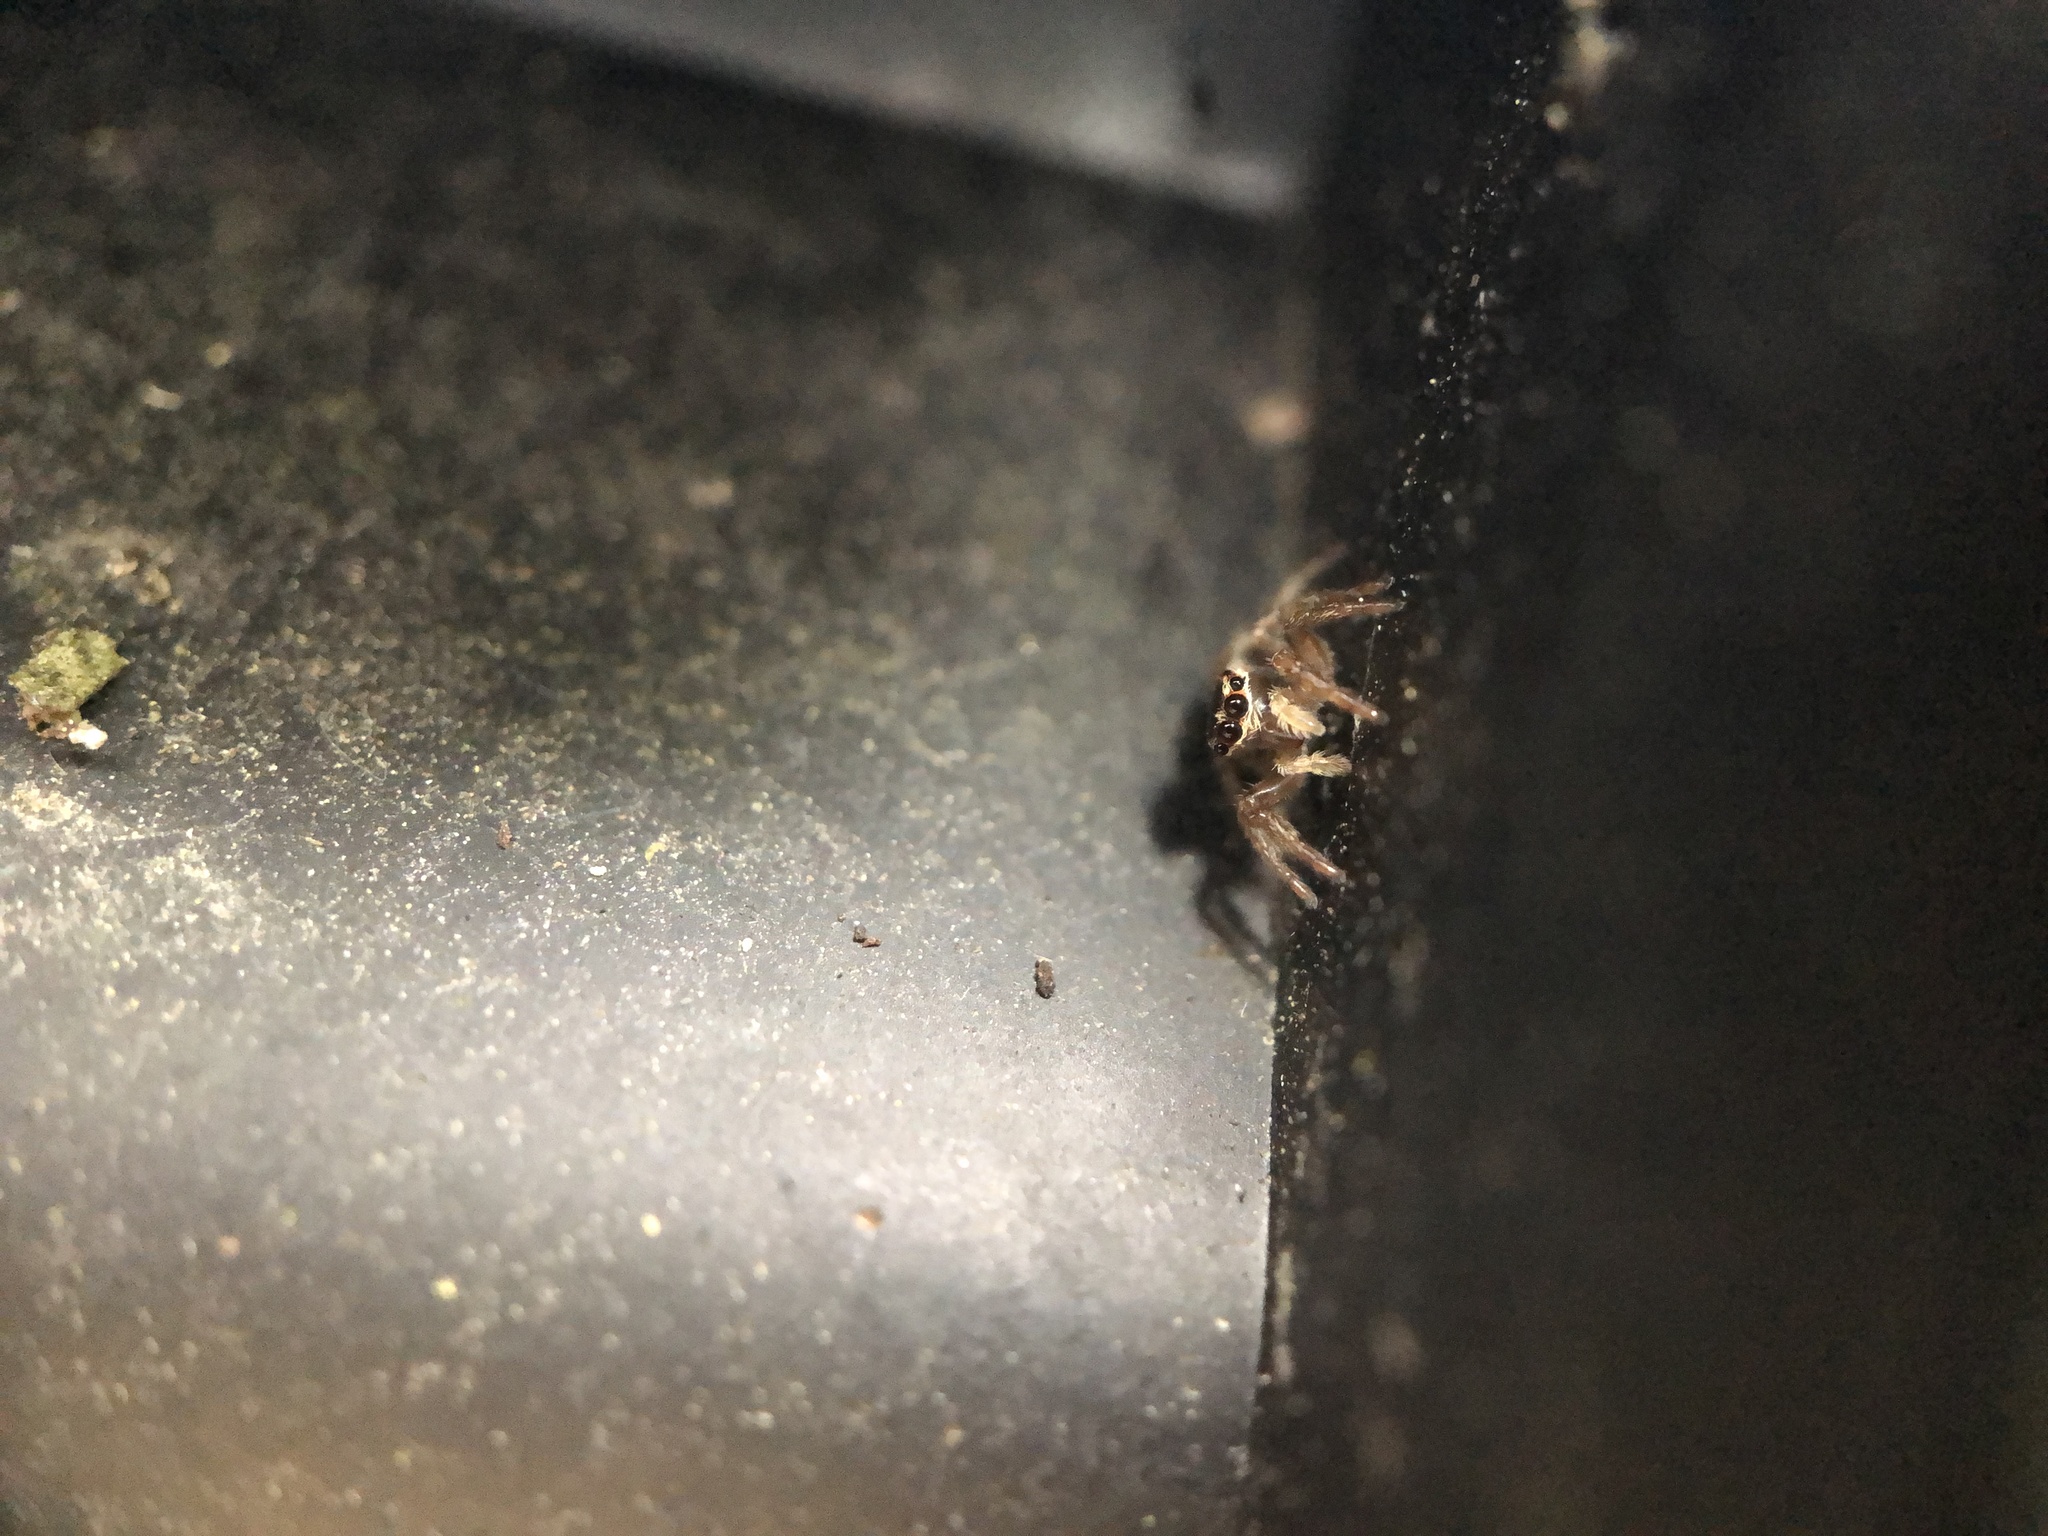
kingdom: Animalia
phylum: Arthropoda
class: Arachnida
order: Araneae
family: Salticidae
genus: Maratus
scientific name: Maratus griseus
